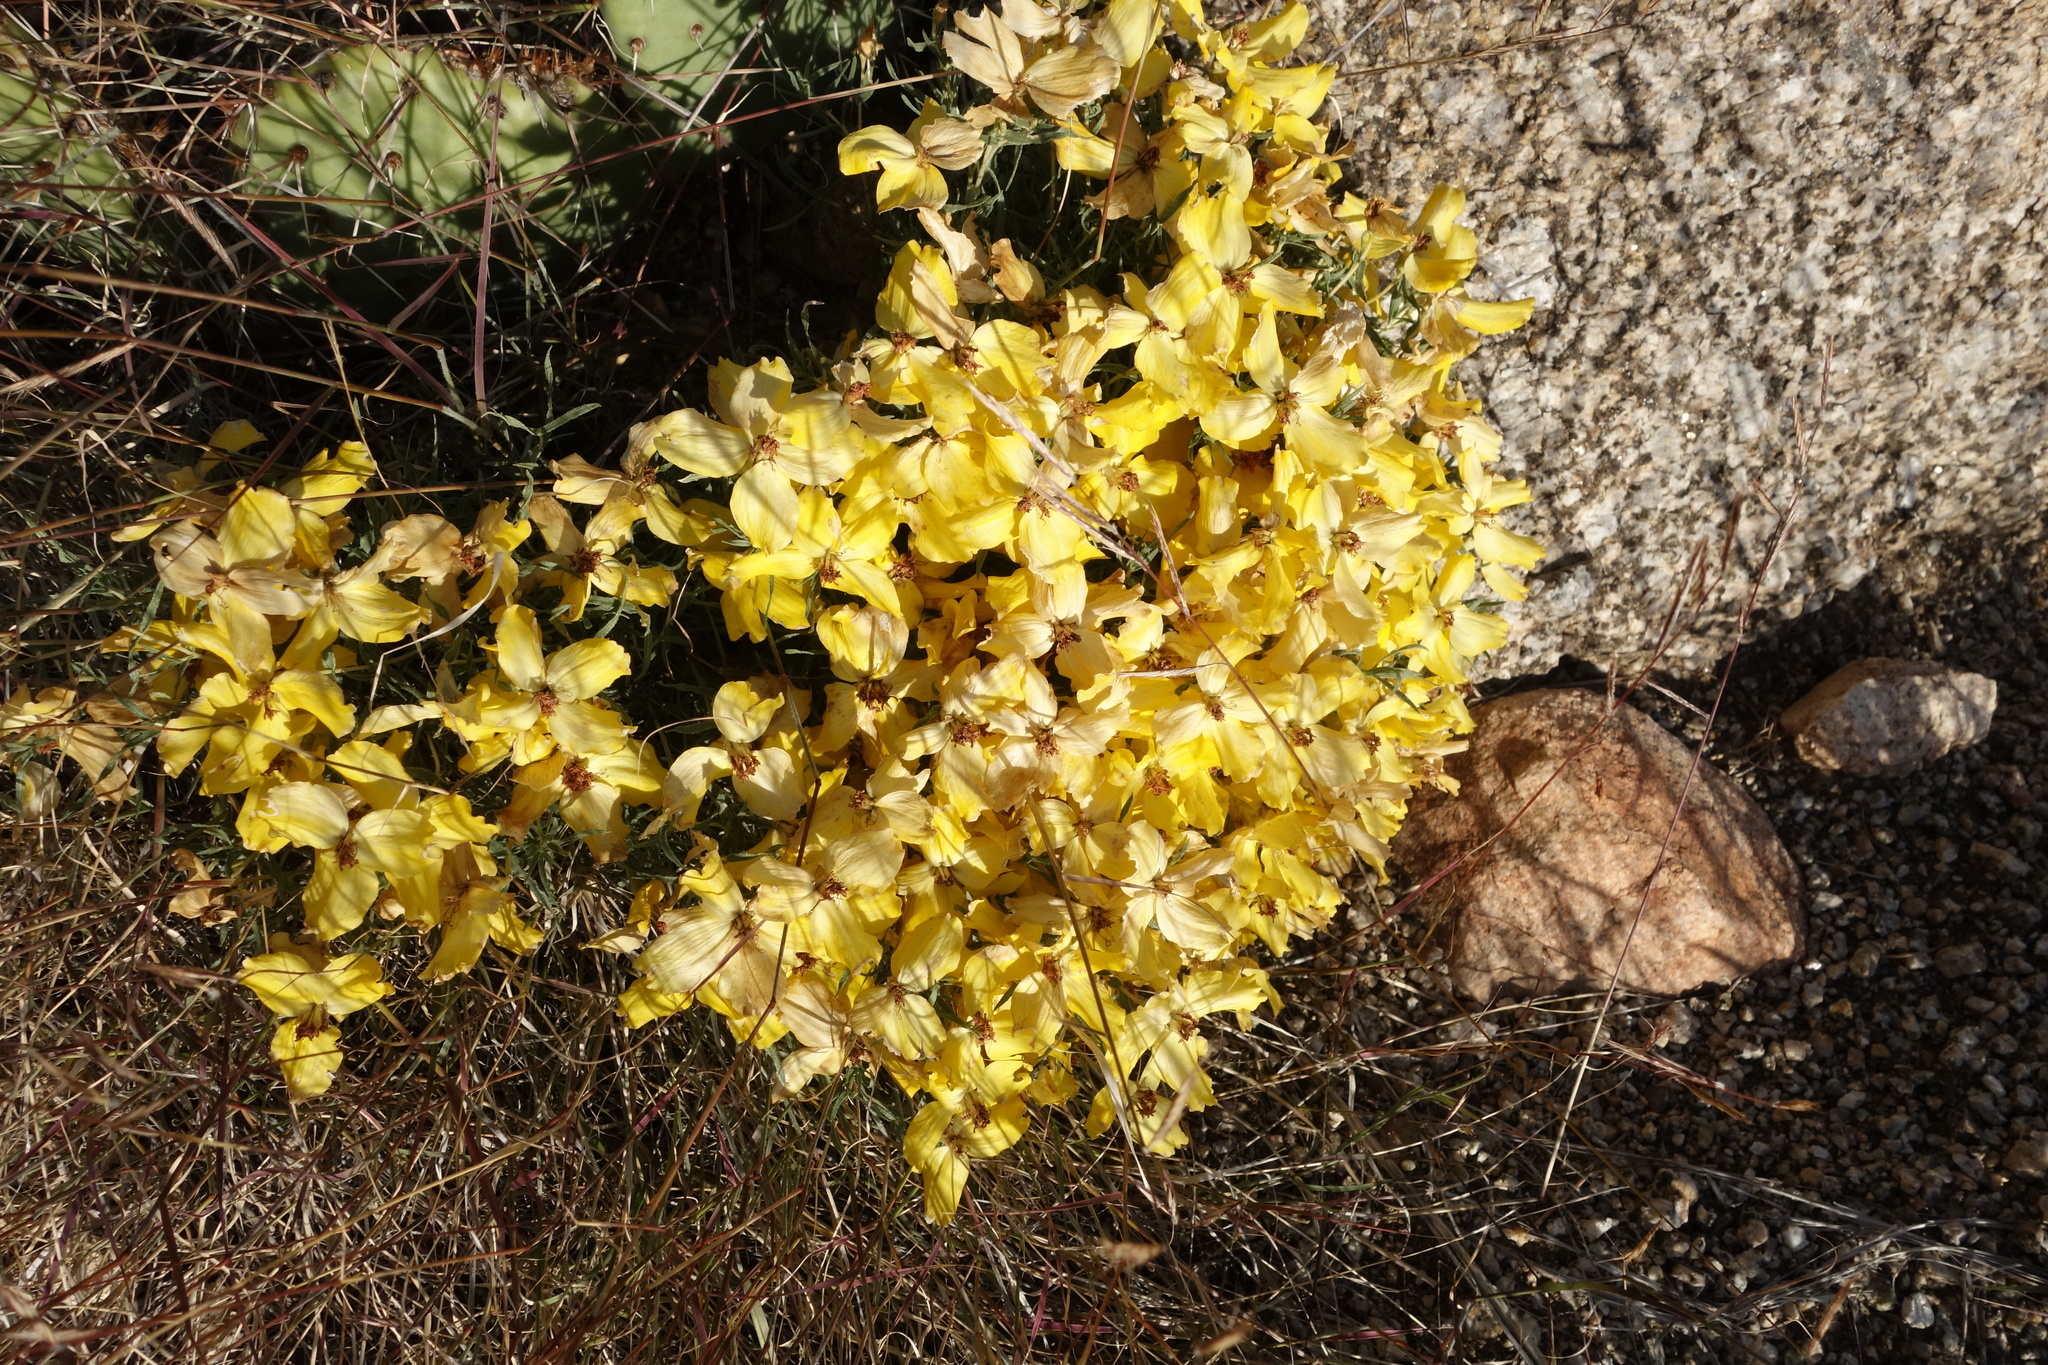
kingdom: Plantae
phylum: Tracheophyta
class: Magnoliopsida
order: Asterales
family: Asteraceae
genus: Zinnia
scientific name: Zinnia grandiflora
